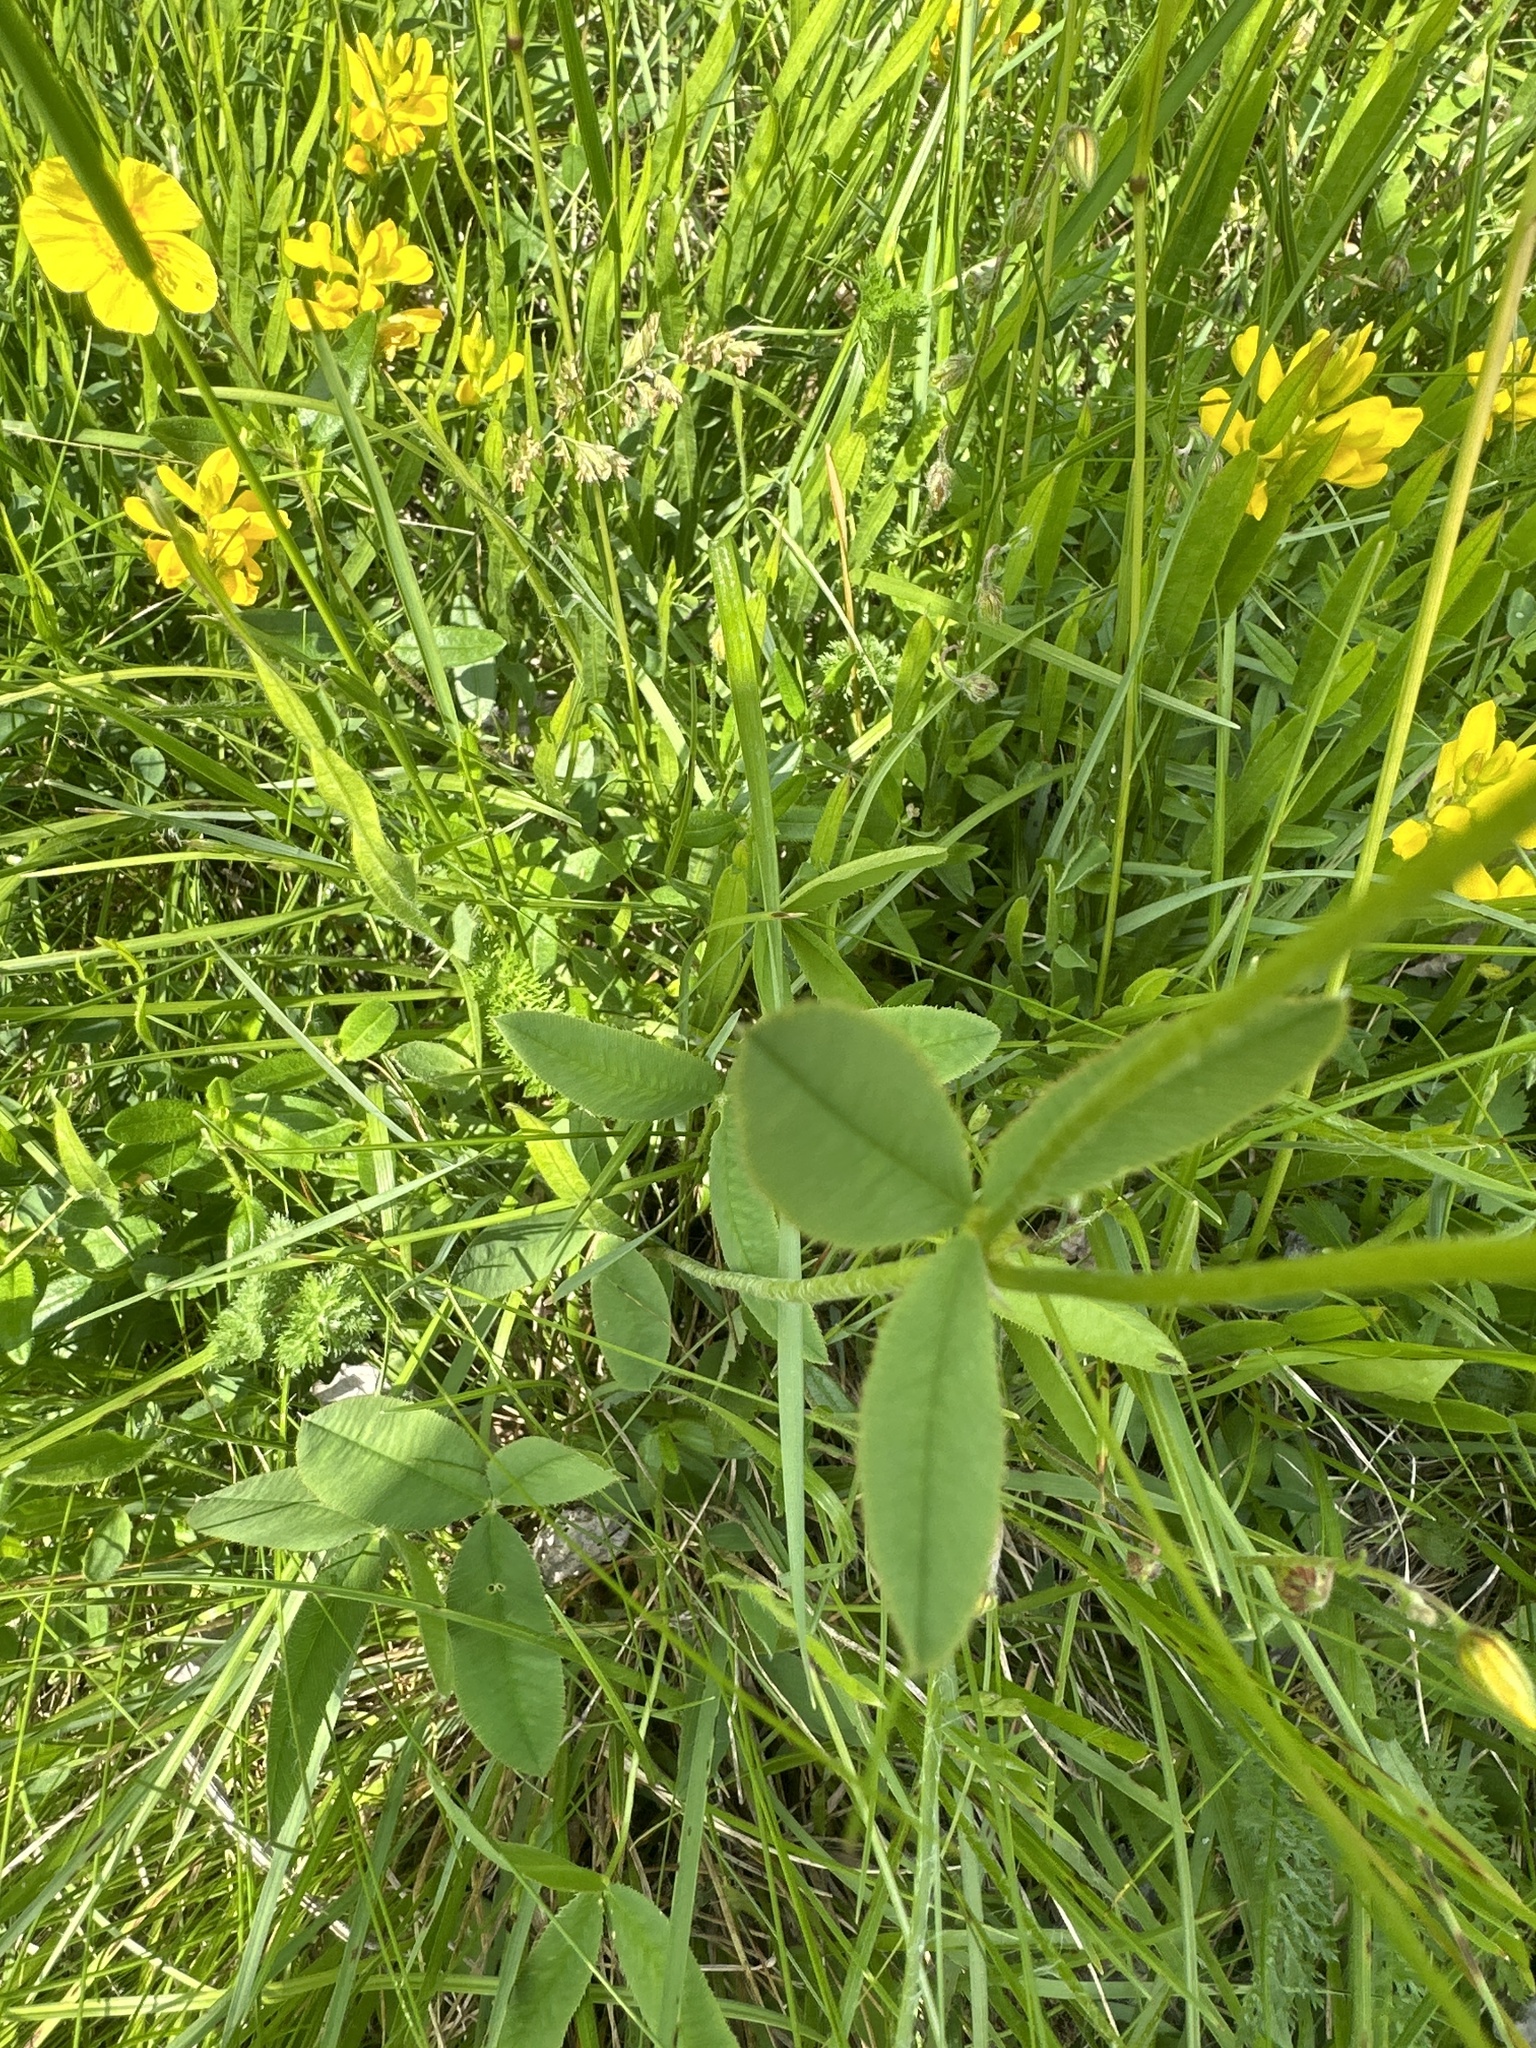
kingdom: Plantae
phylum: Tracheophyta
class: Magnoliopsida
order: Fabales
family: Fabaceae
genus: Trifolium
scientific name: Trifolium montanum
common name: Mountain clover
